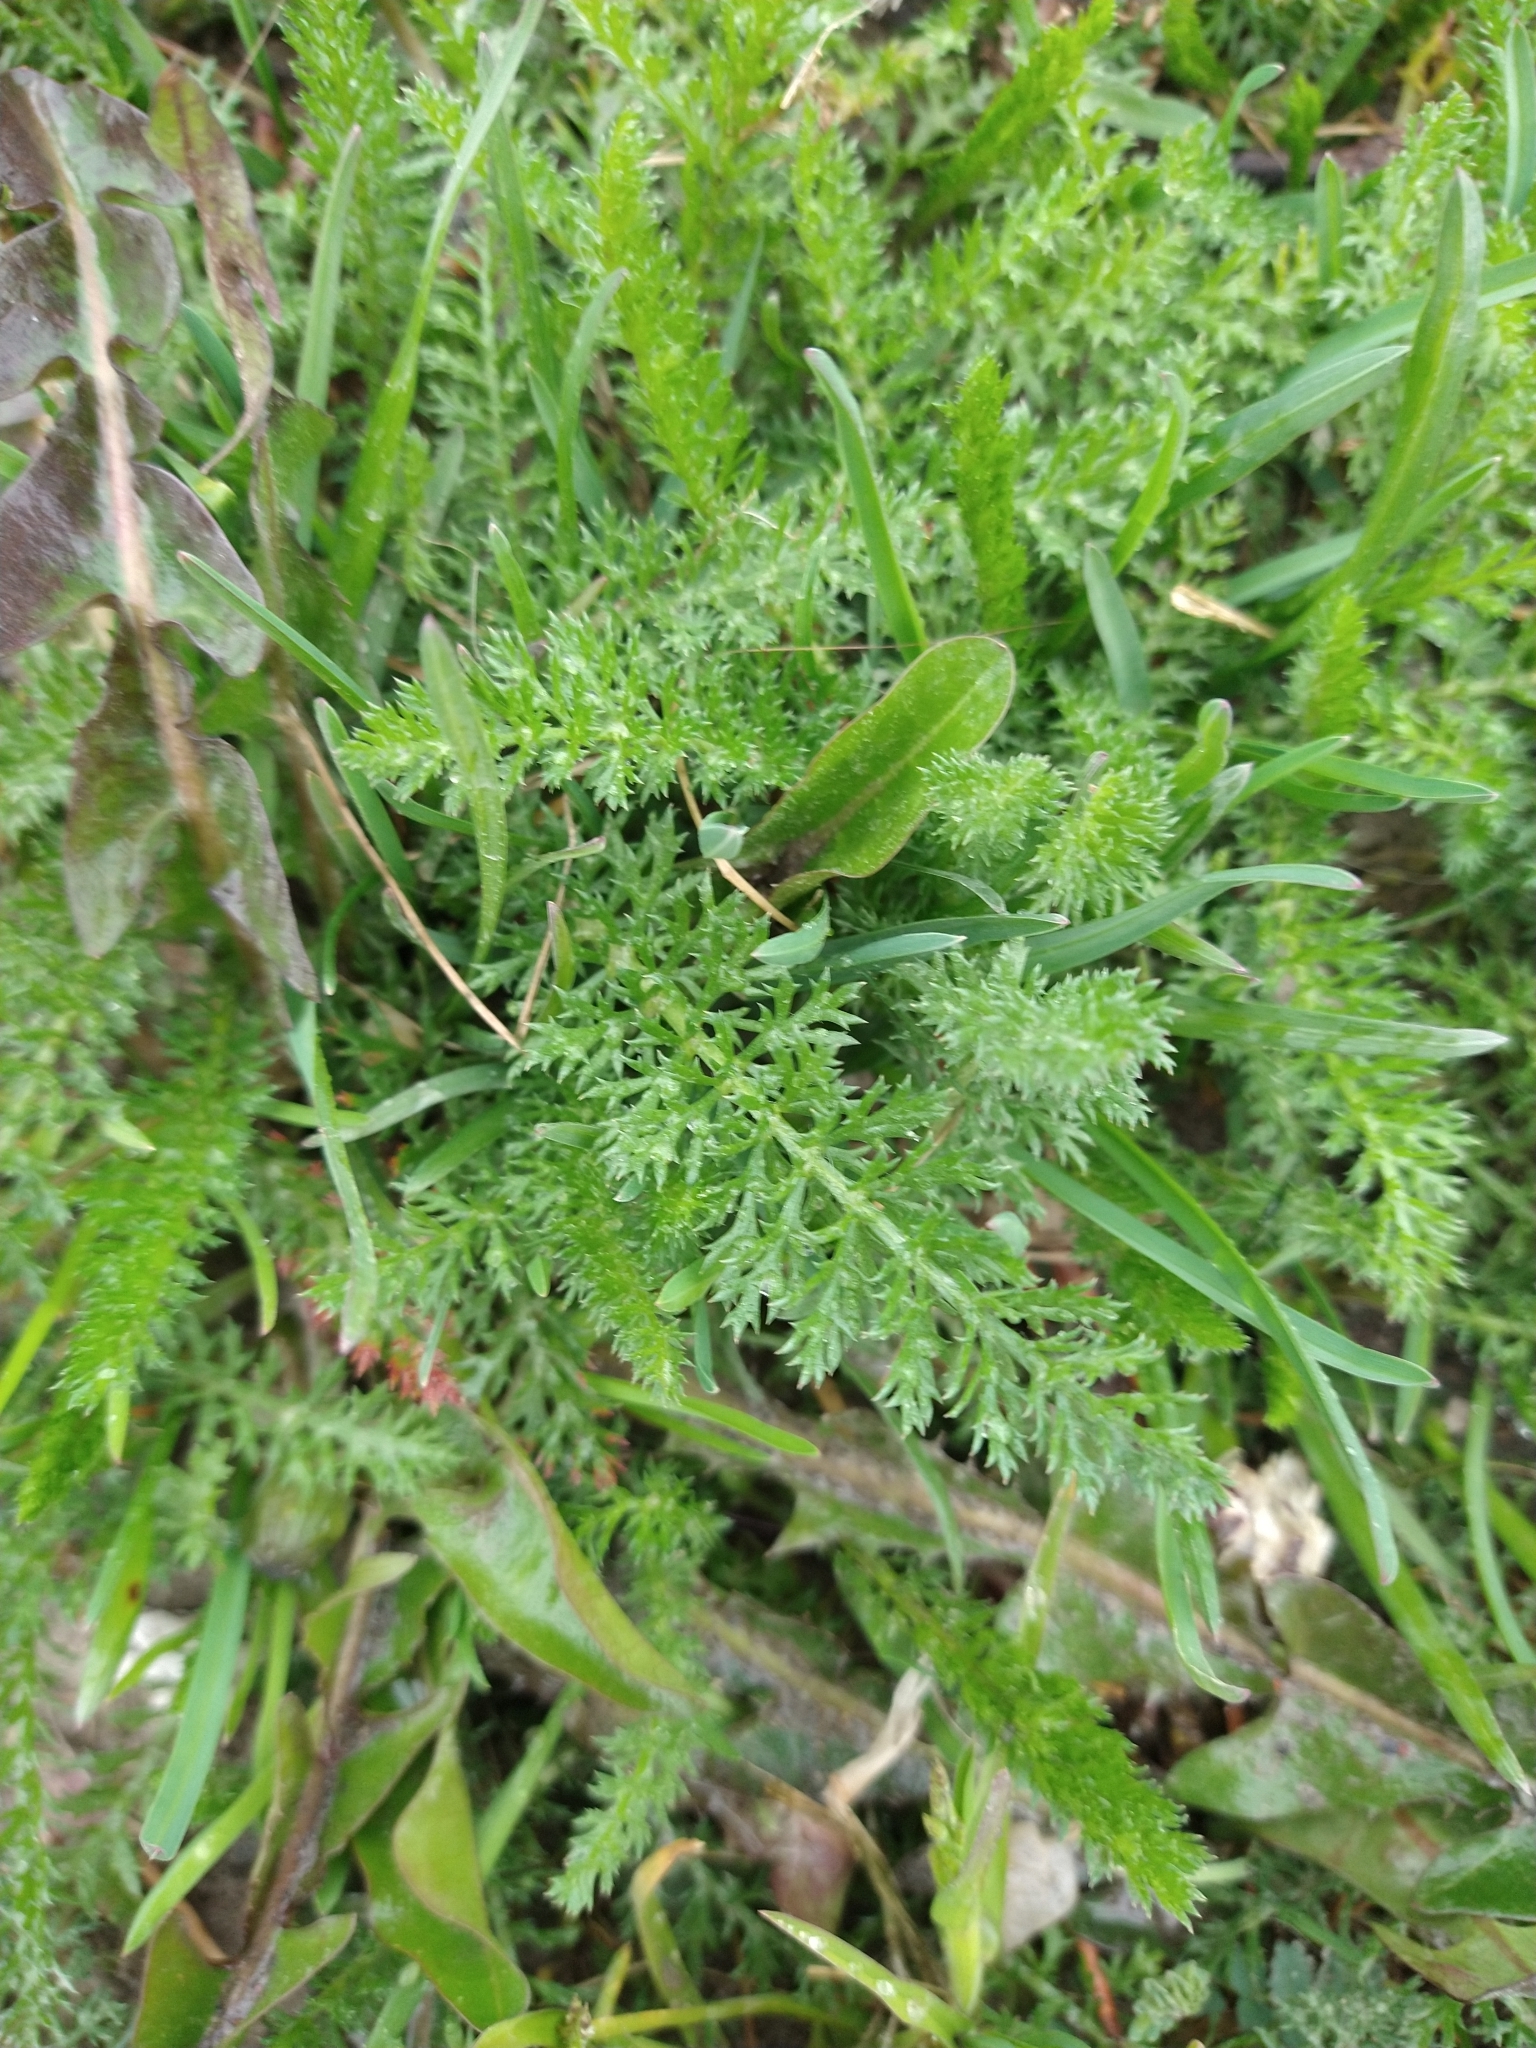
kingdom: Plantae
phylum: Tracheophyta
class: Magnoliopsida
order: Asterales
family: Asteraceae
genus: Achillea
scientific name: Achillea millefolium
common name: Yarrow
